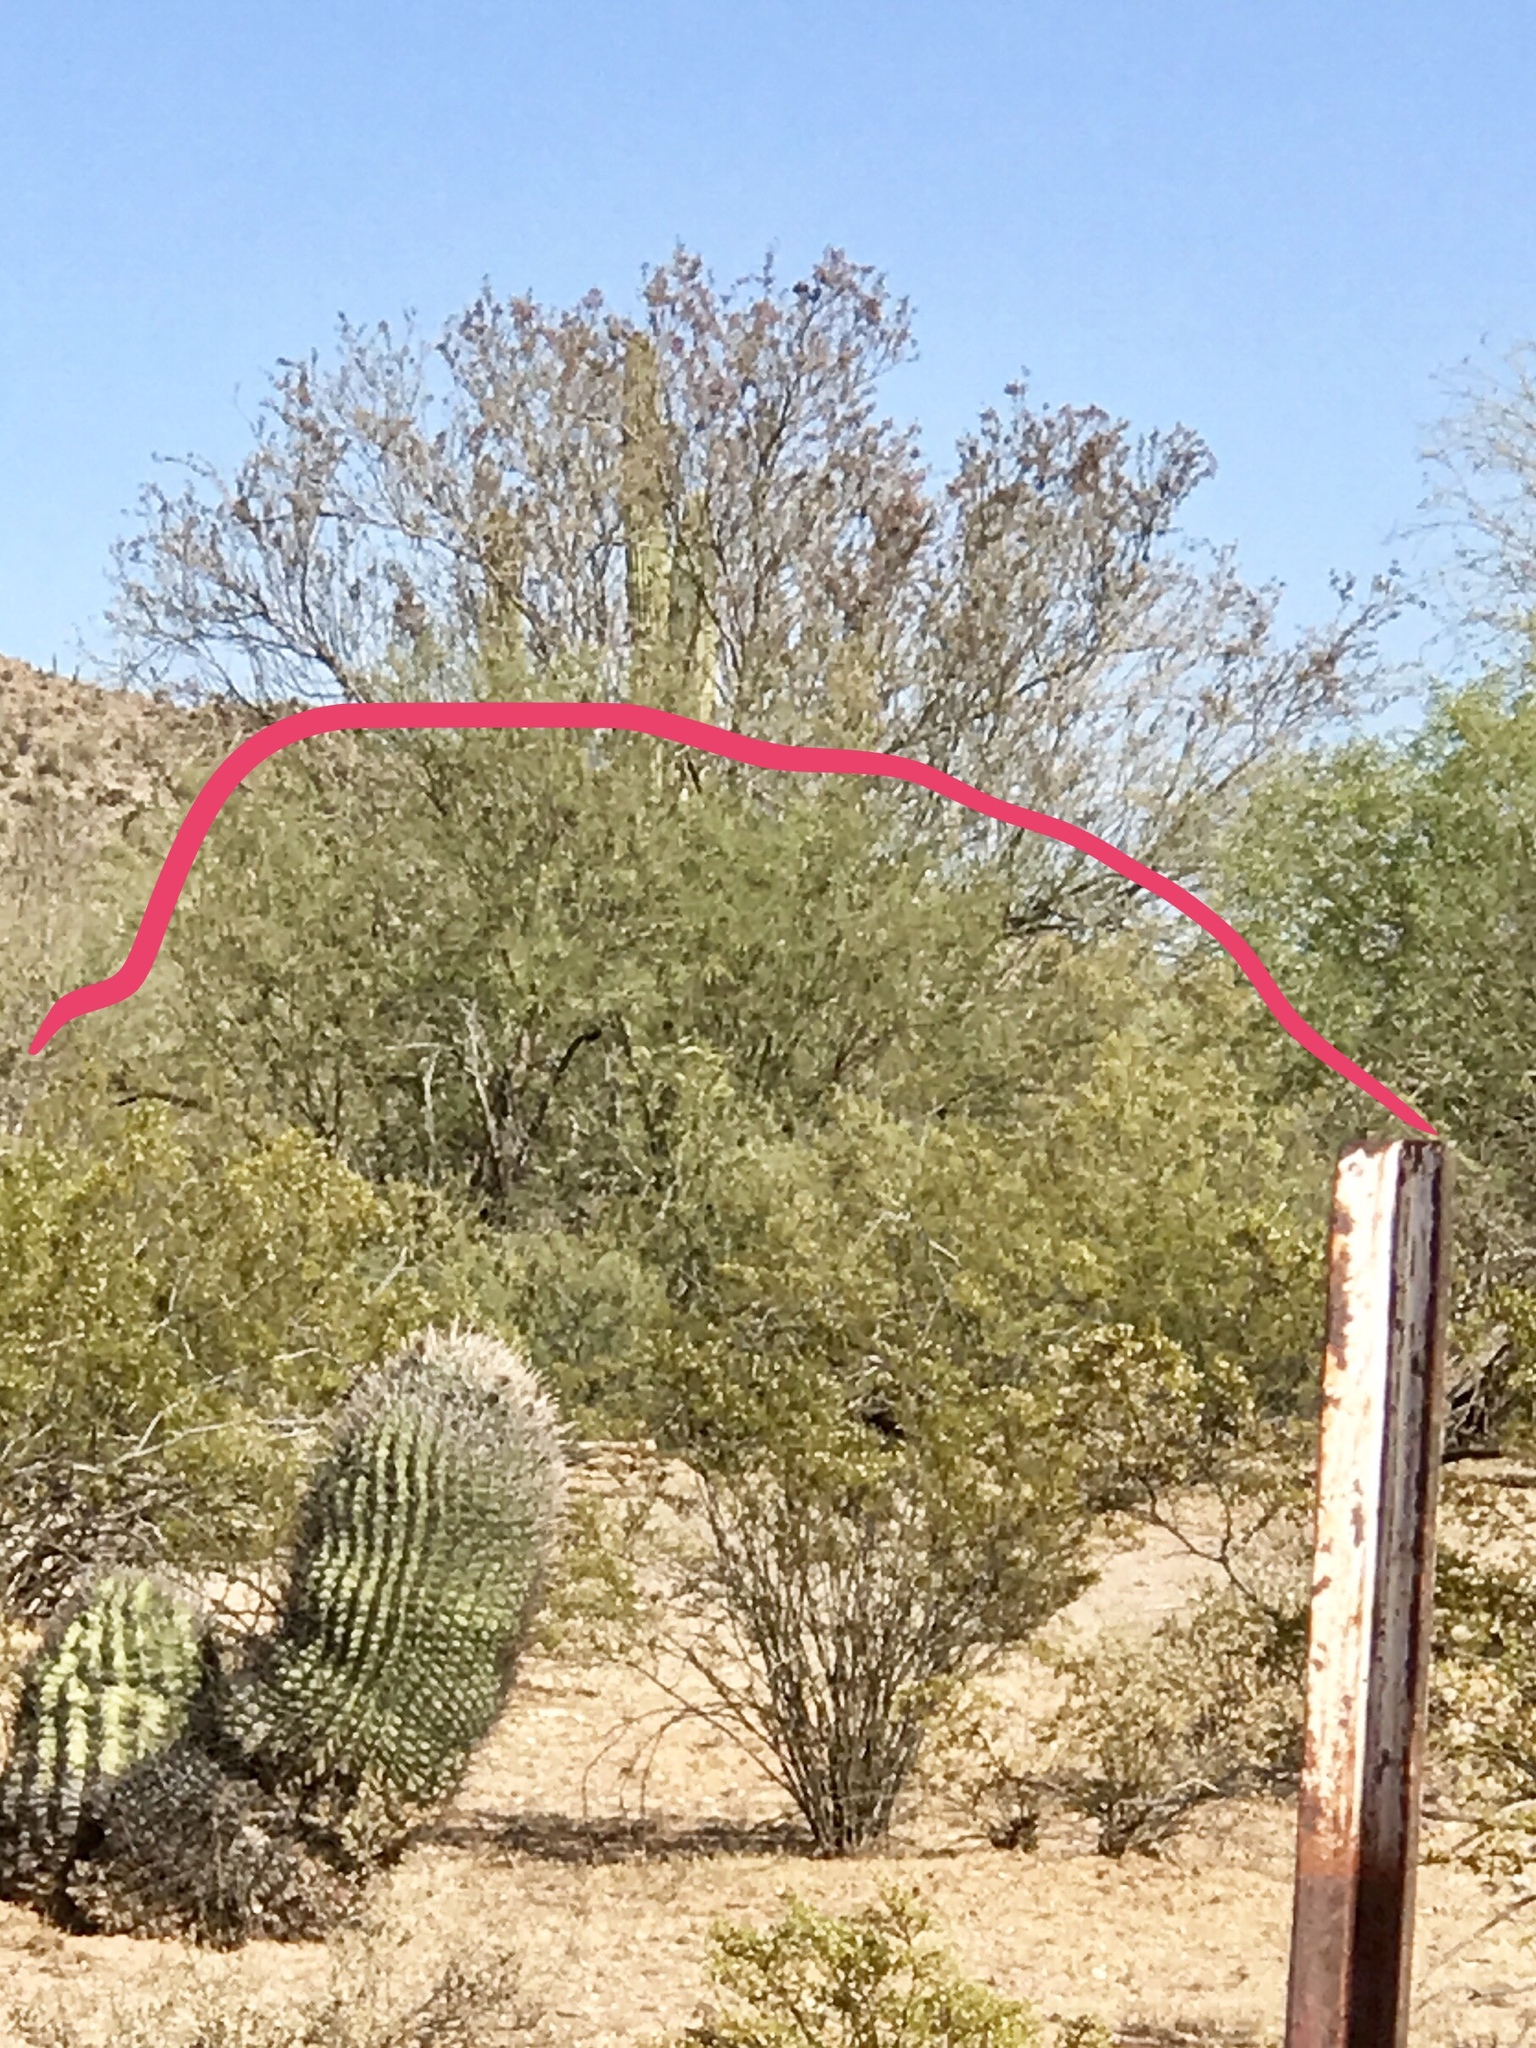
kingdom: Plantae
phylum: Tracheophyta
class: Magnoliopsida
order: Zygophyllales
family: Zygophyllaceae
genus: Larrea
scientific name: Larrea tridentata
